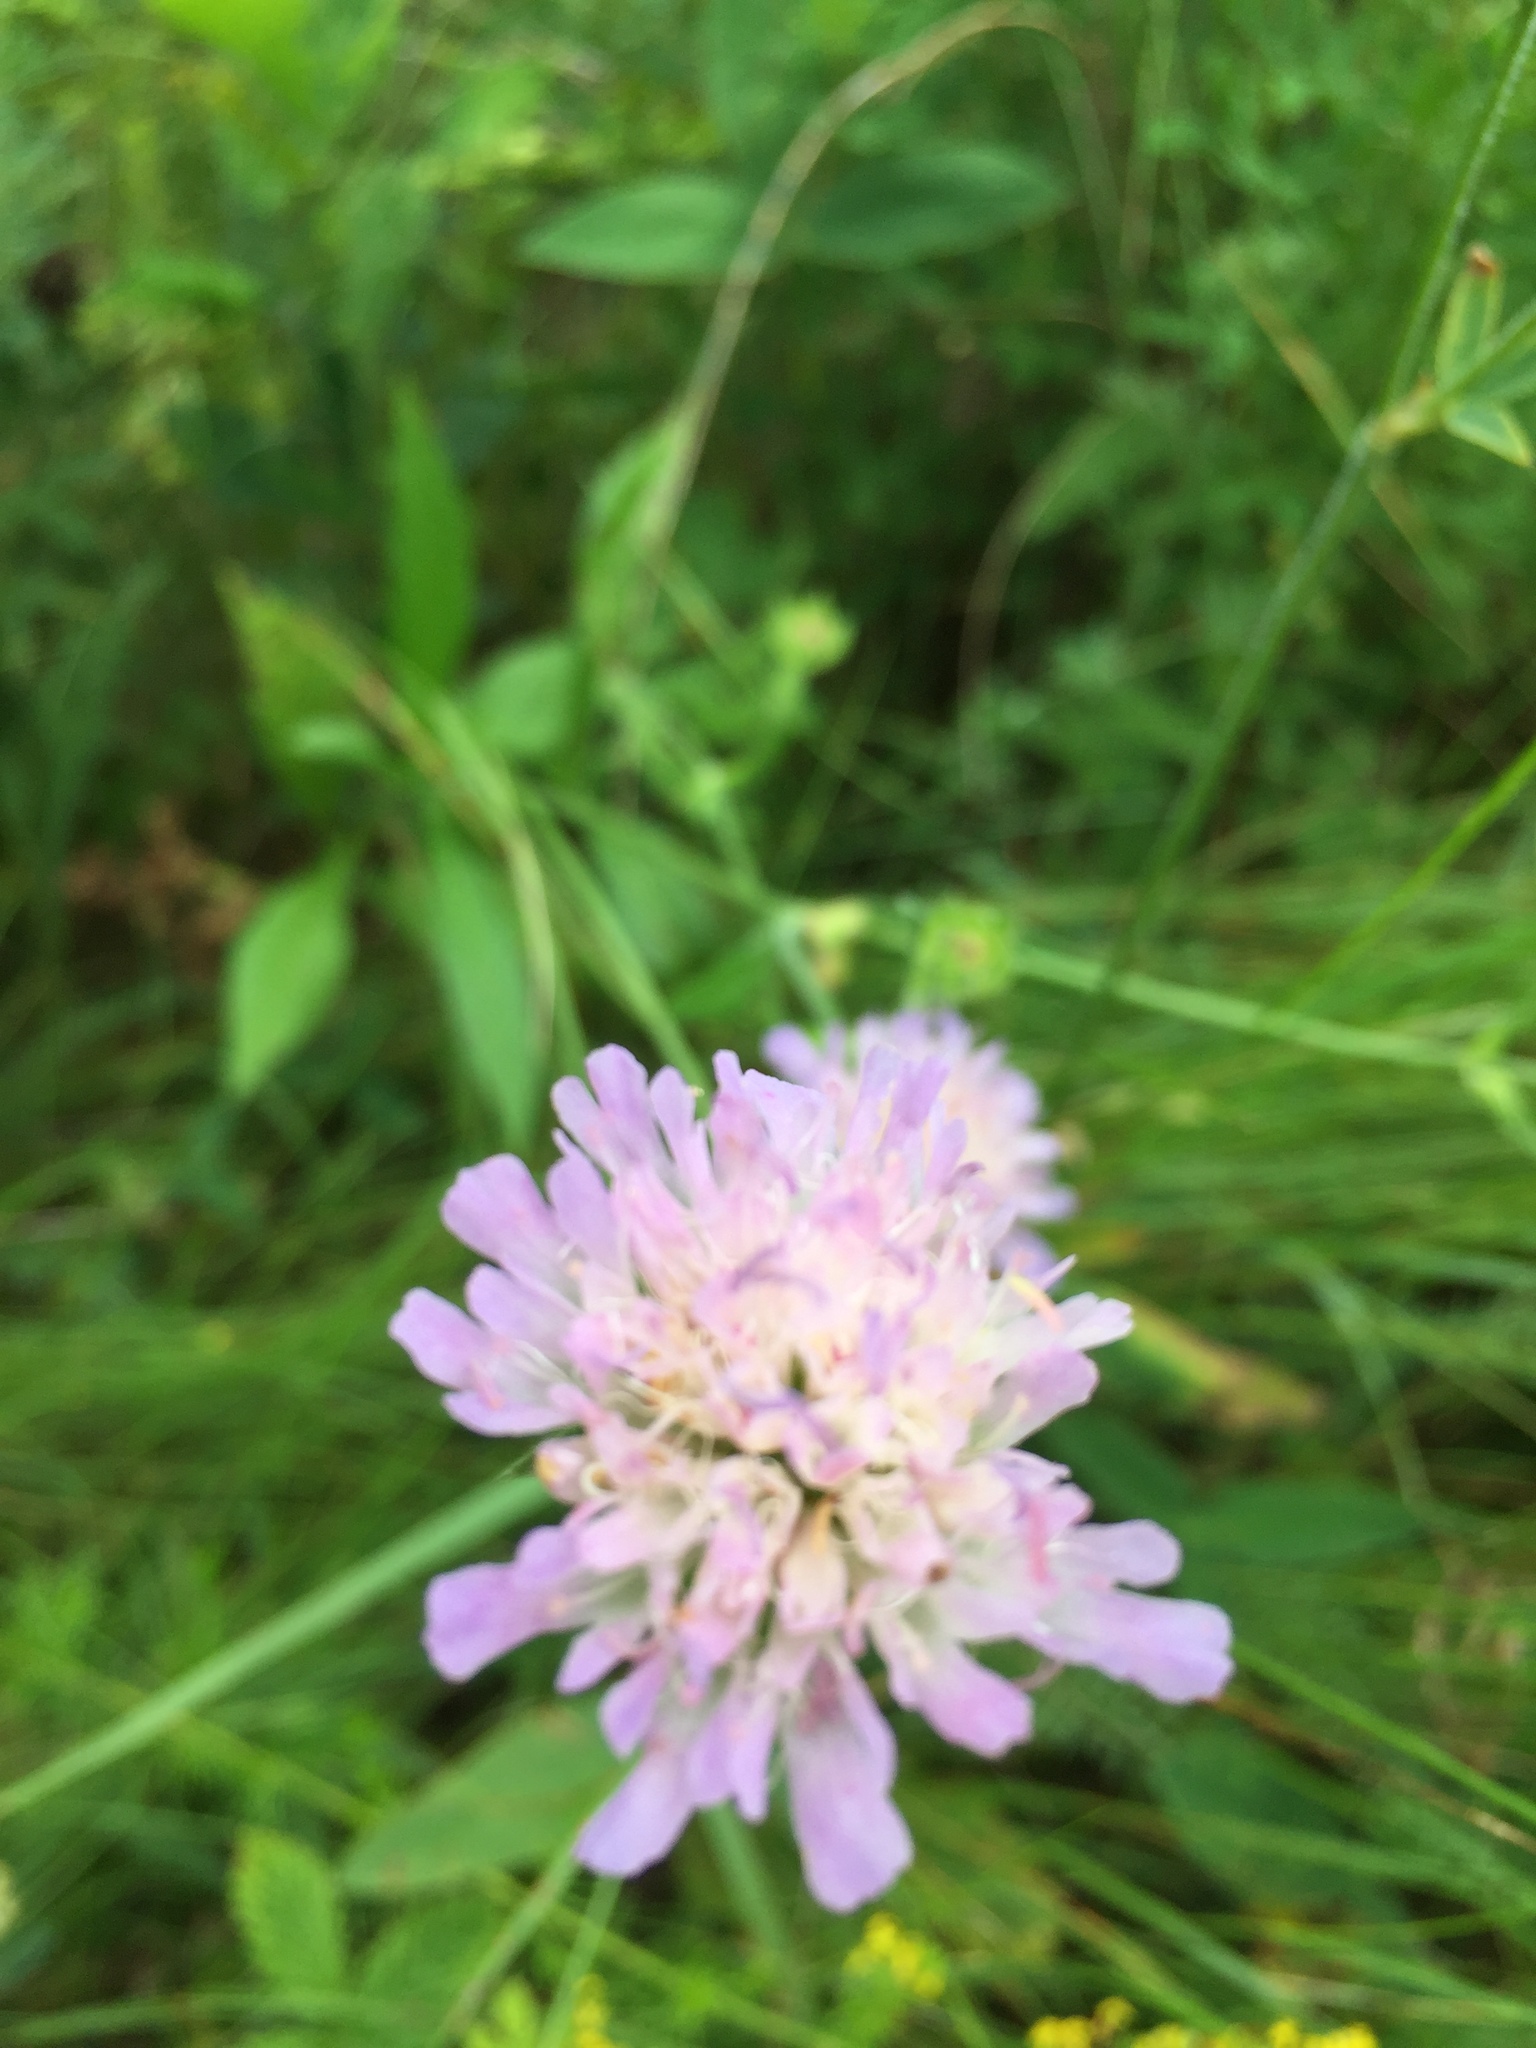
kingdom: Plantae
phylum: Tracheophyta
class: Magnoliopsida
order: Dipsacales
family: Caprifoliaceae
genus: Knautia
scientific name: Knautia arvensis
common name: Field scabiosa
